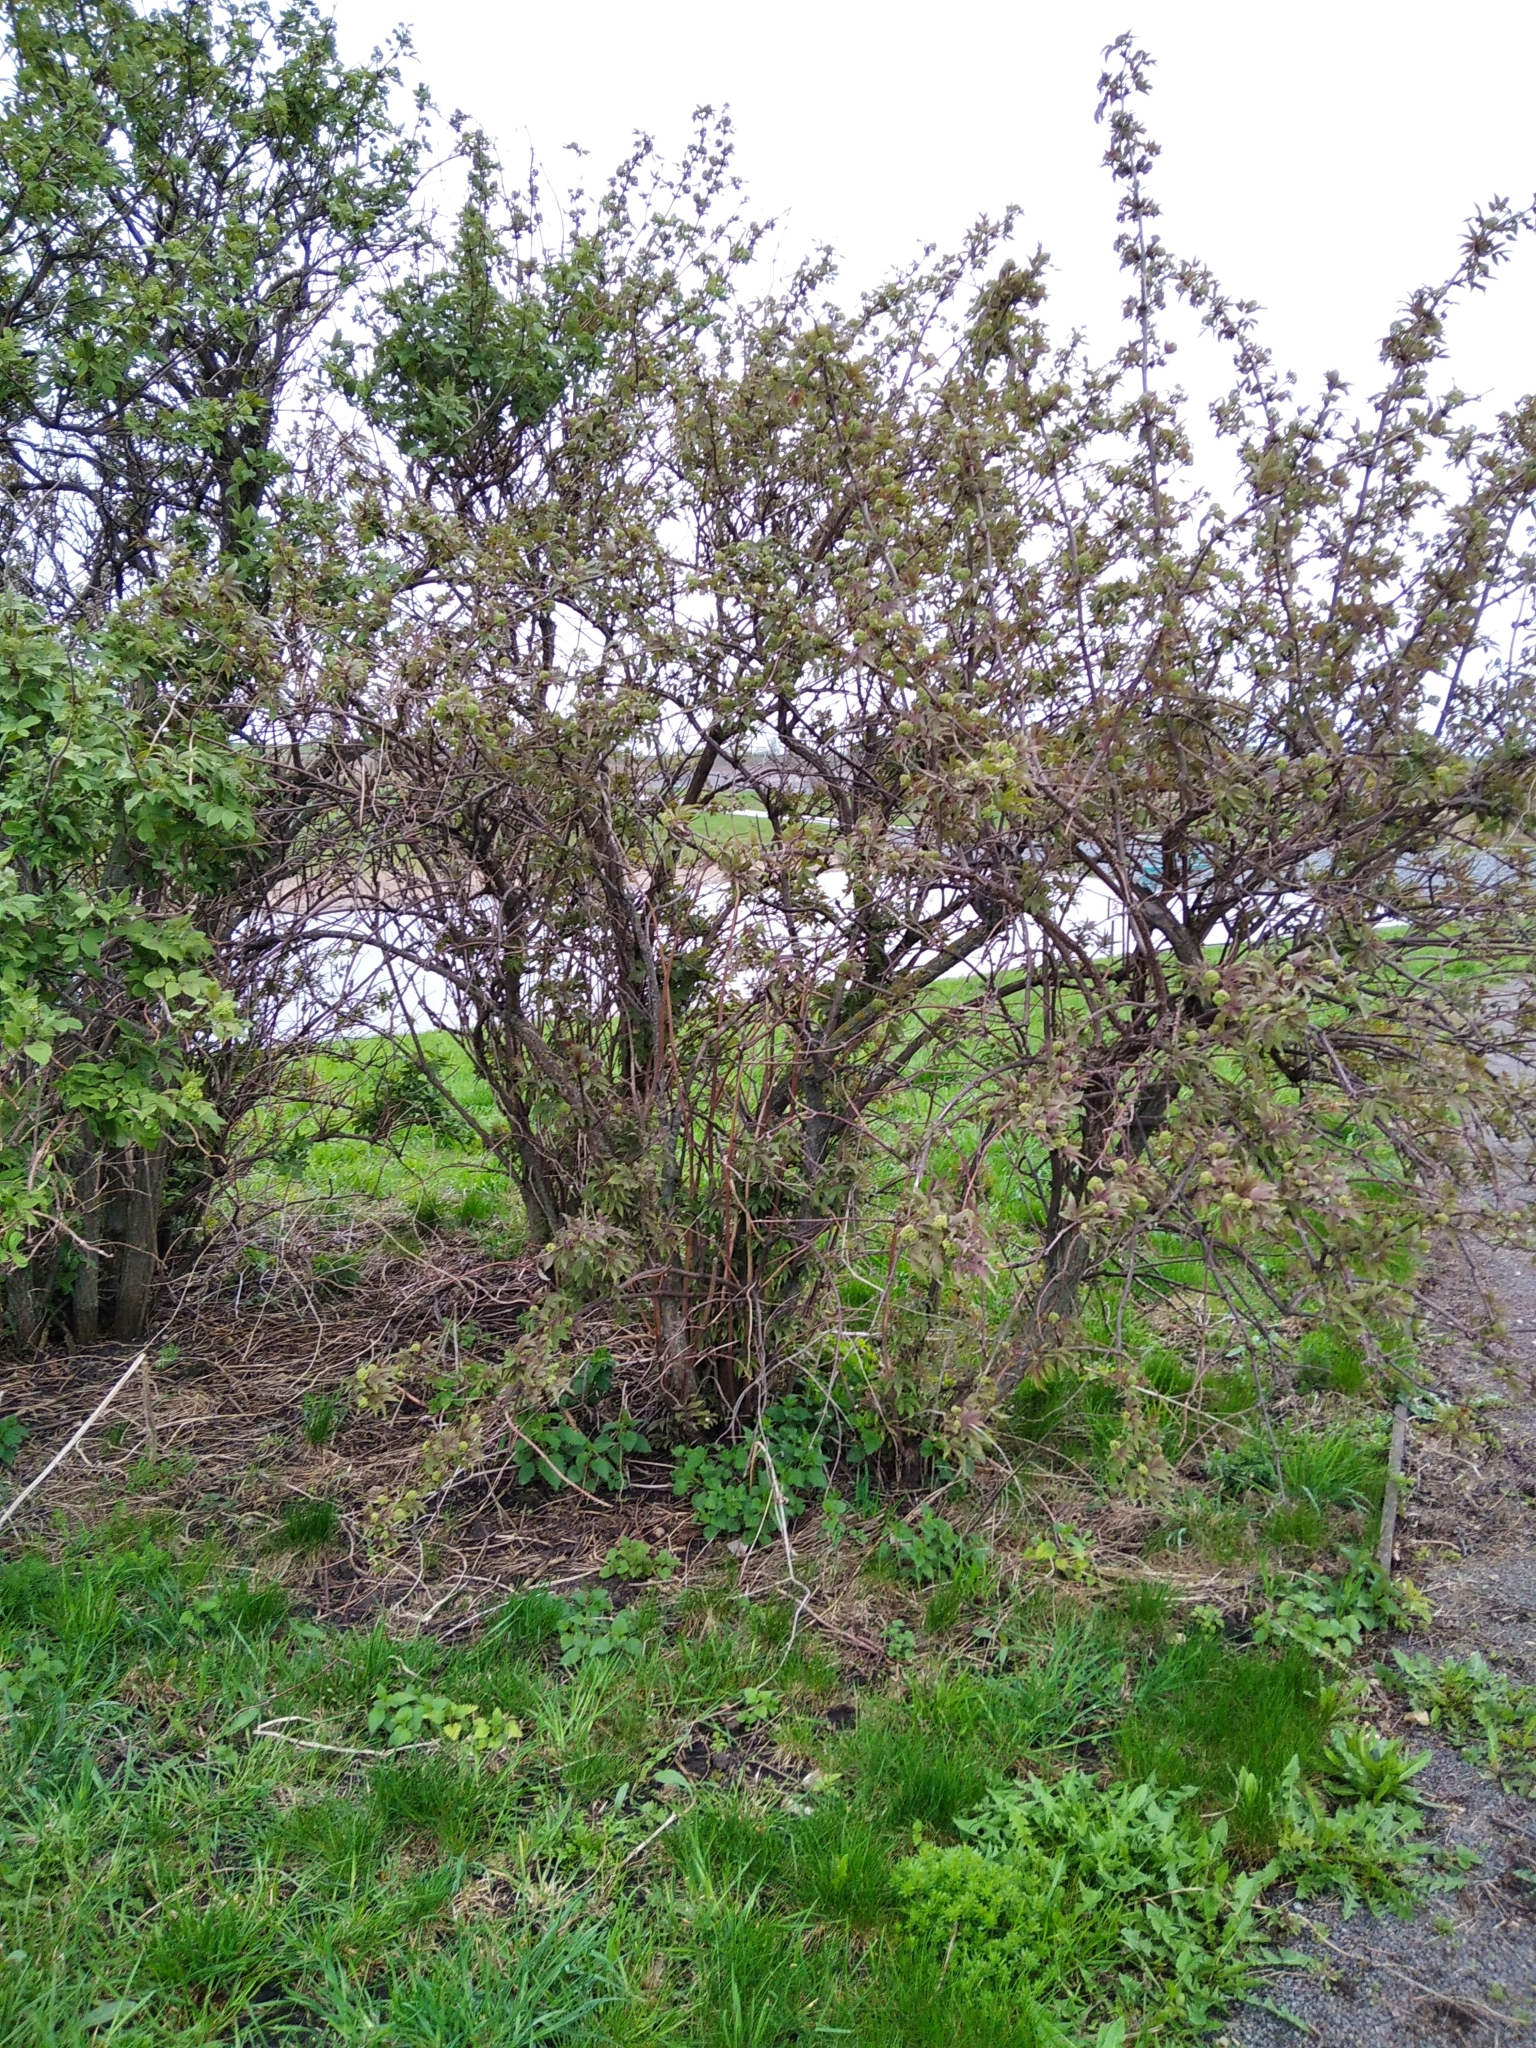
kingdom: Plantae
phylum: Tracheophyta
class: Magnoliopsida
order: Dipsacales
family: Viburnaceae
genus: Sambucus
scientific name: Sambucus racemosa
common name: Red-berried elder
